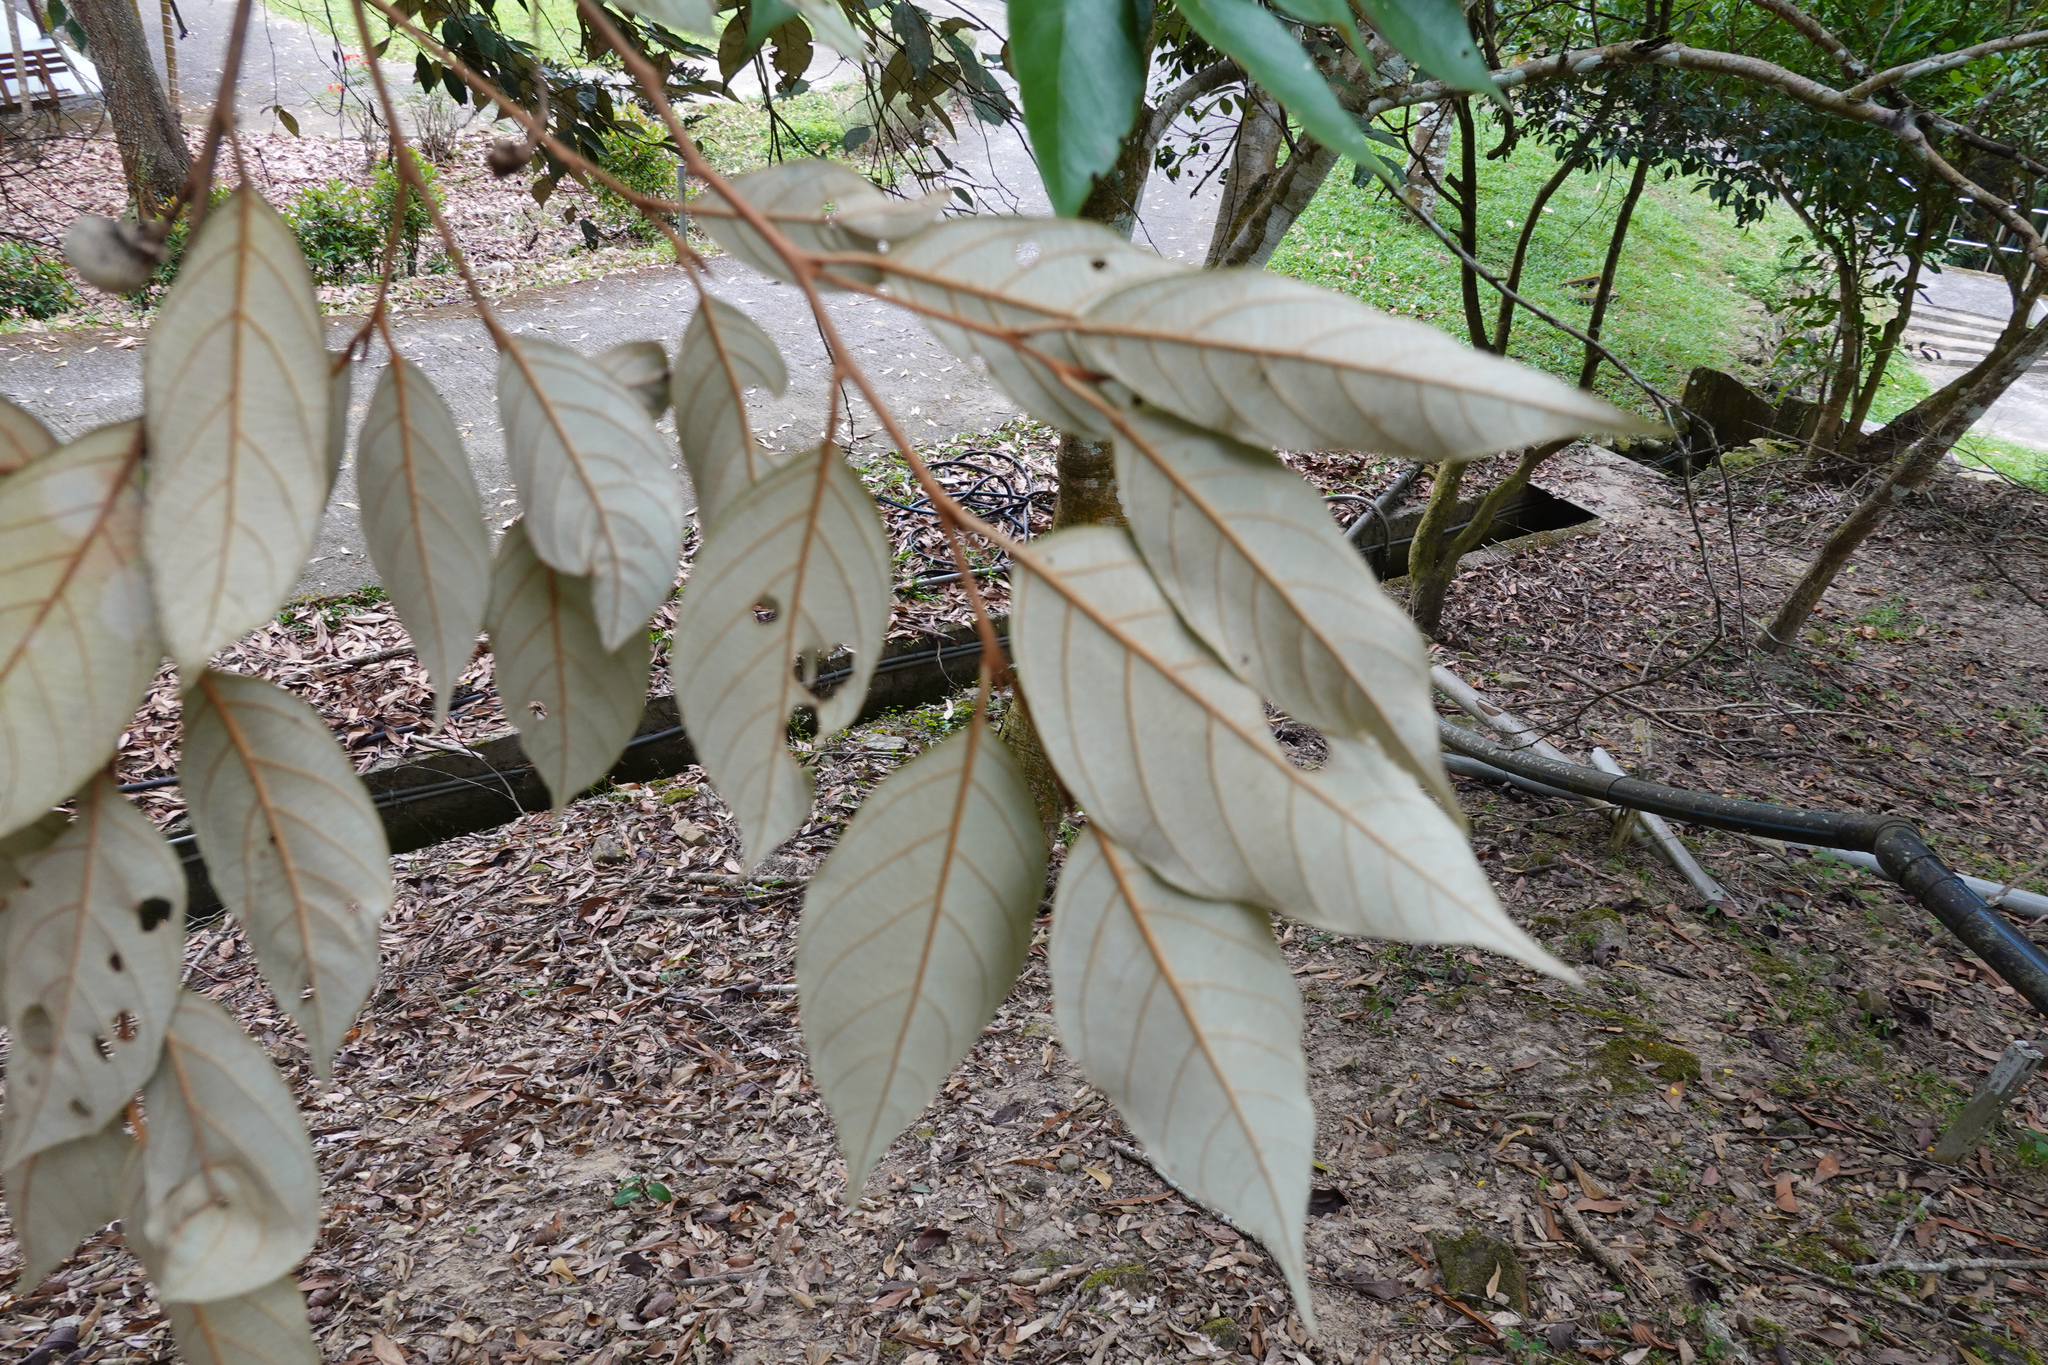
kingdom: Plantae
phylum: Tracheophyta
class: Magnoliopsida
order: Ericales
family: Styracaceae
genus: Styrax
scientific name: Styrax suberifolius
